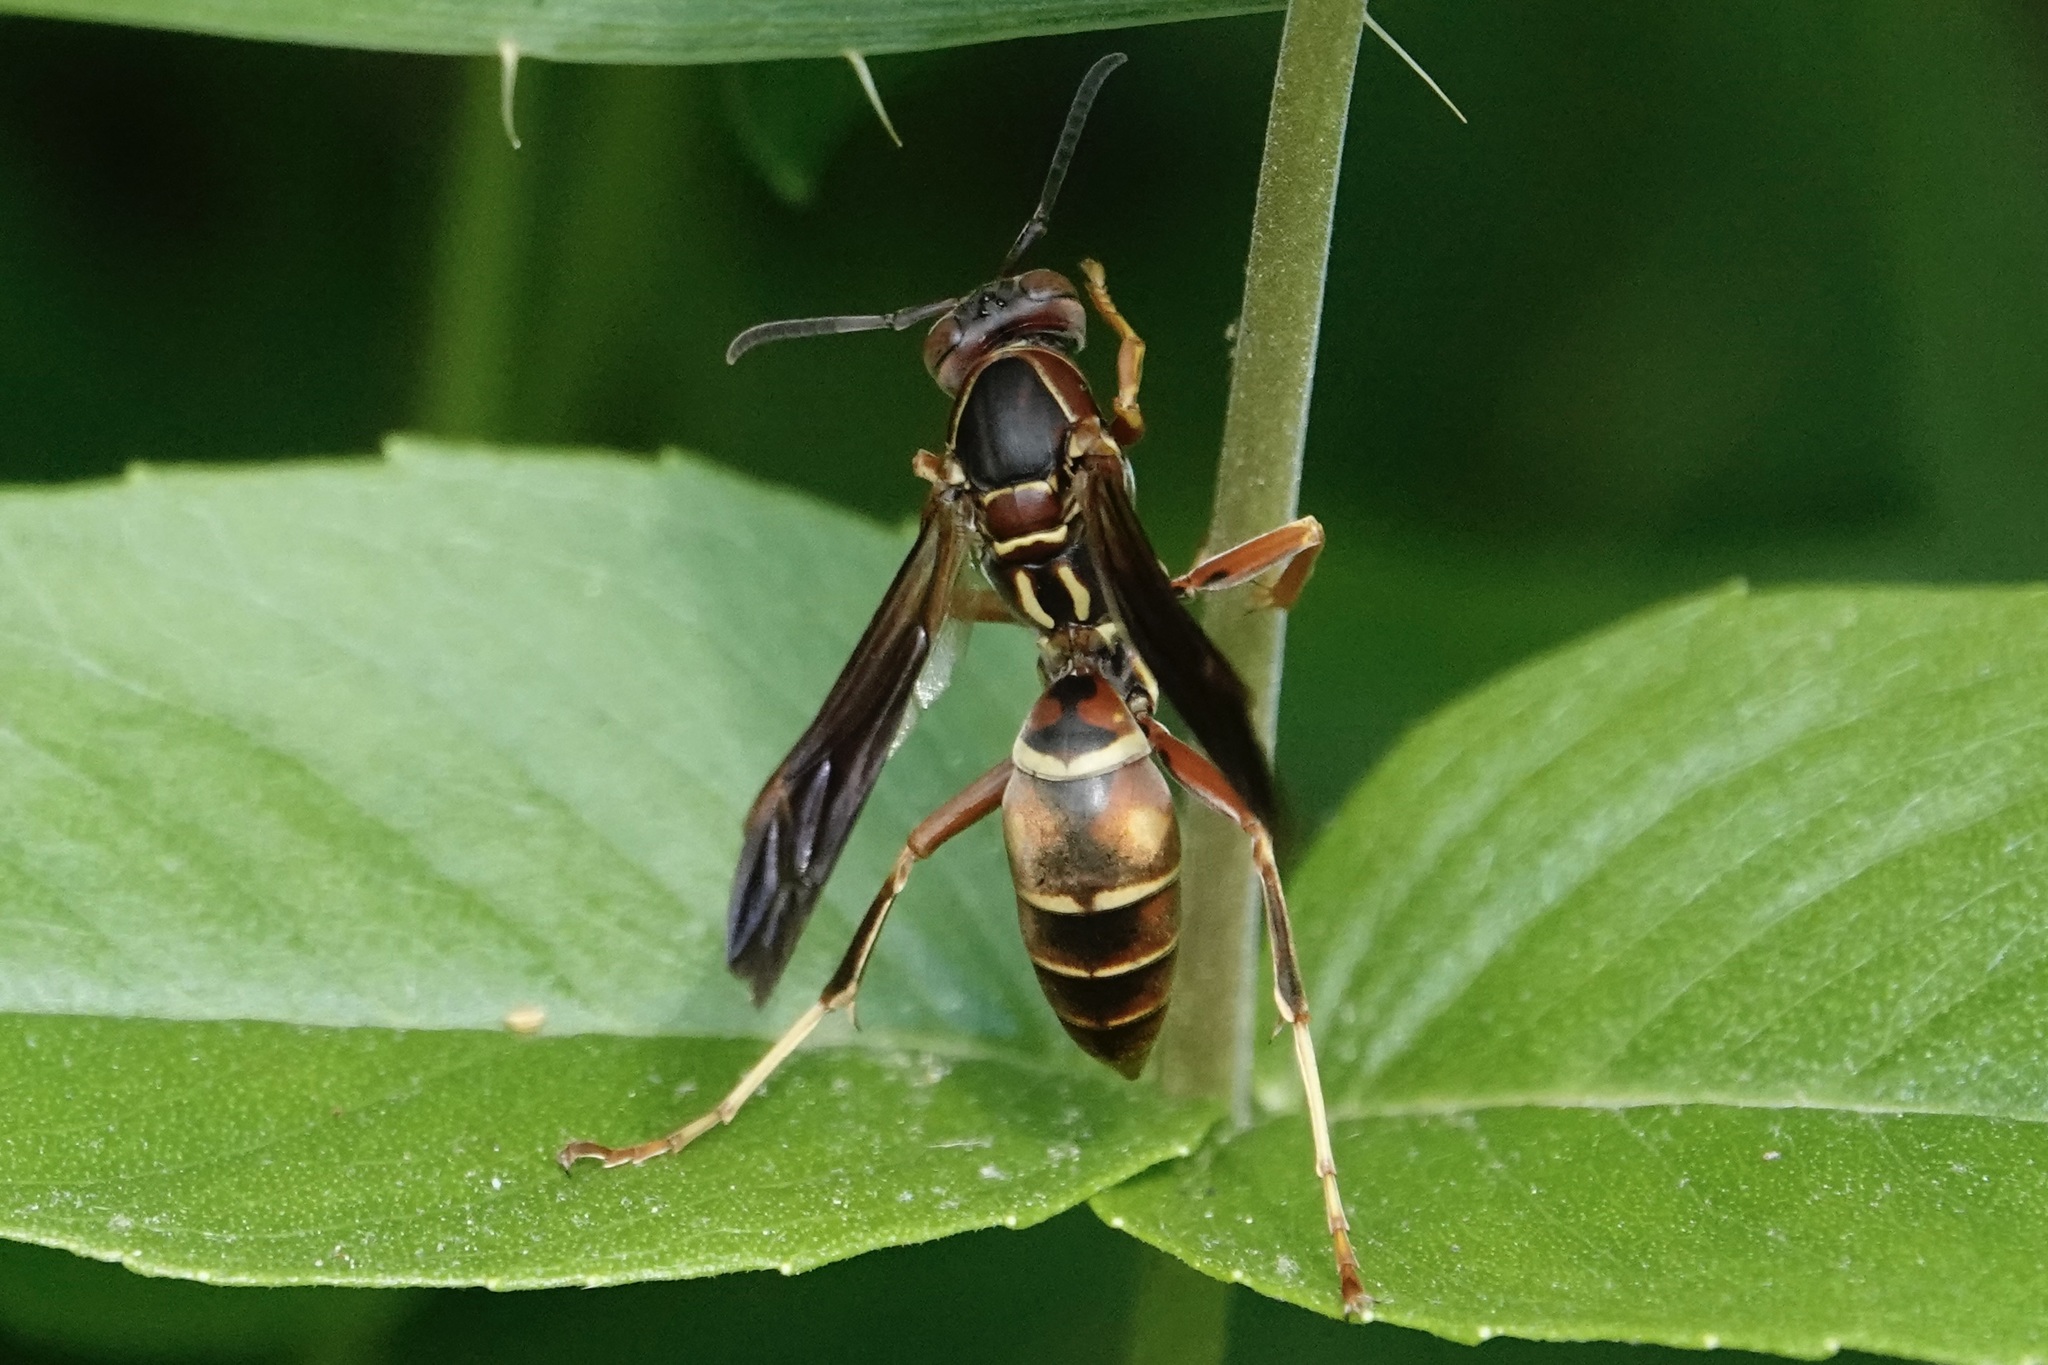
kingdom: Animalia
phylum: Arthropoda
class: Insecta
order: Hymenoptera
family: Eumenidae
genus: Polistes
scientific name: Polistes fuscatus
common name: Dark paper wasp
